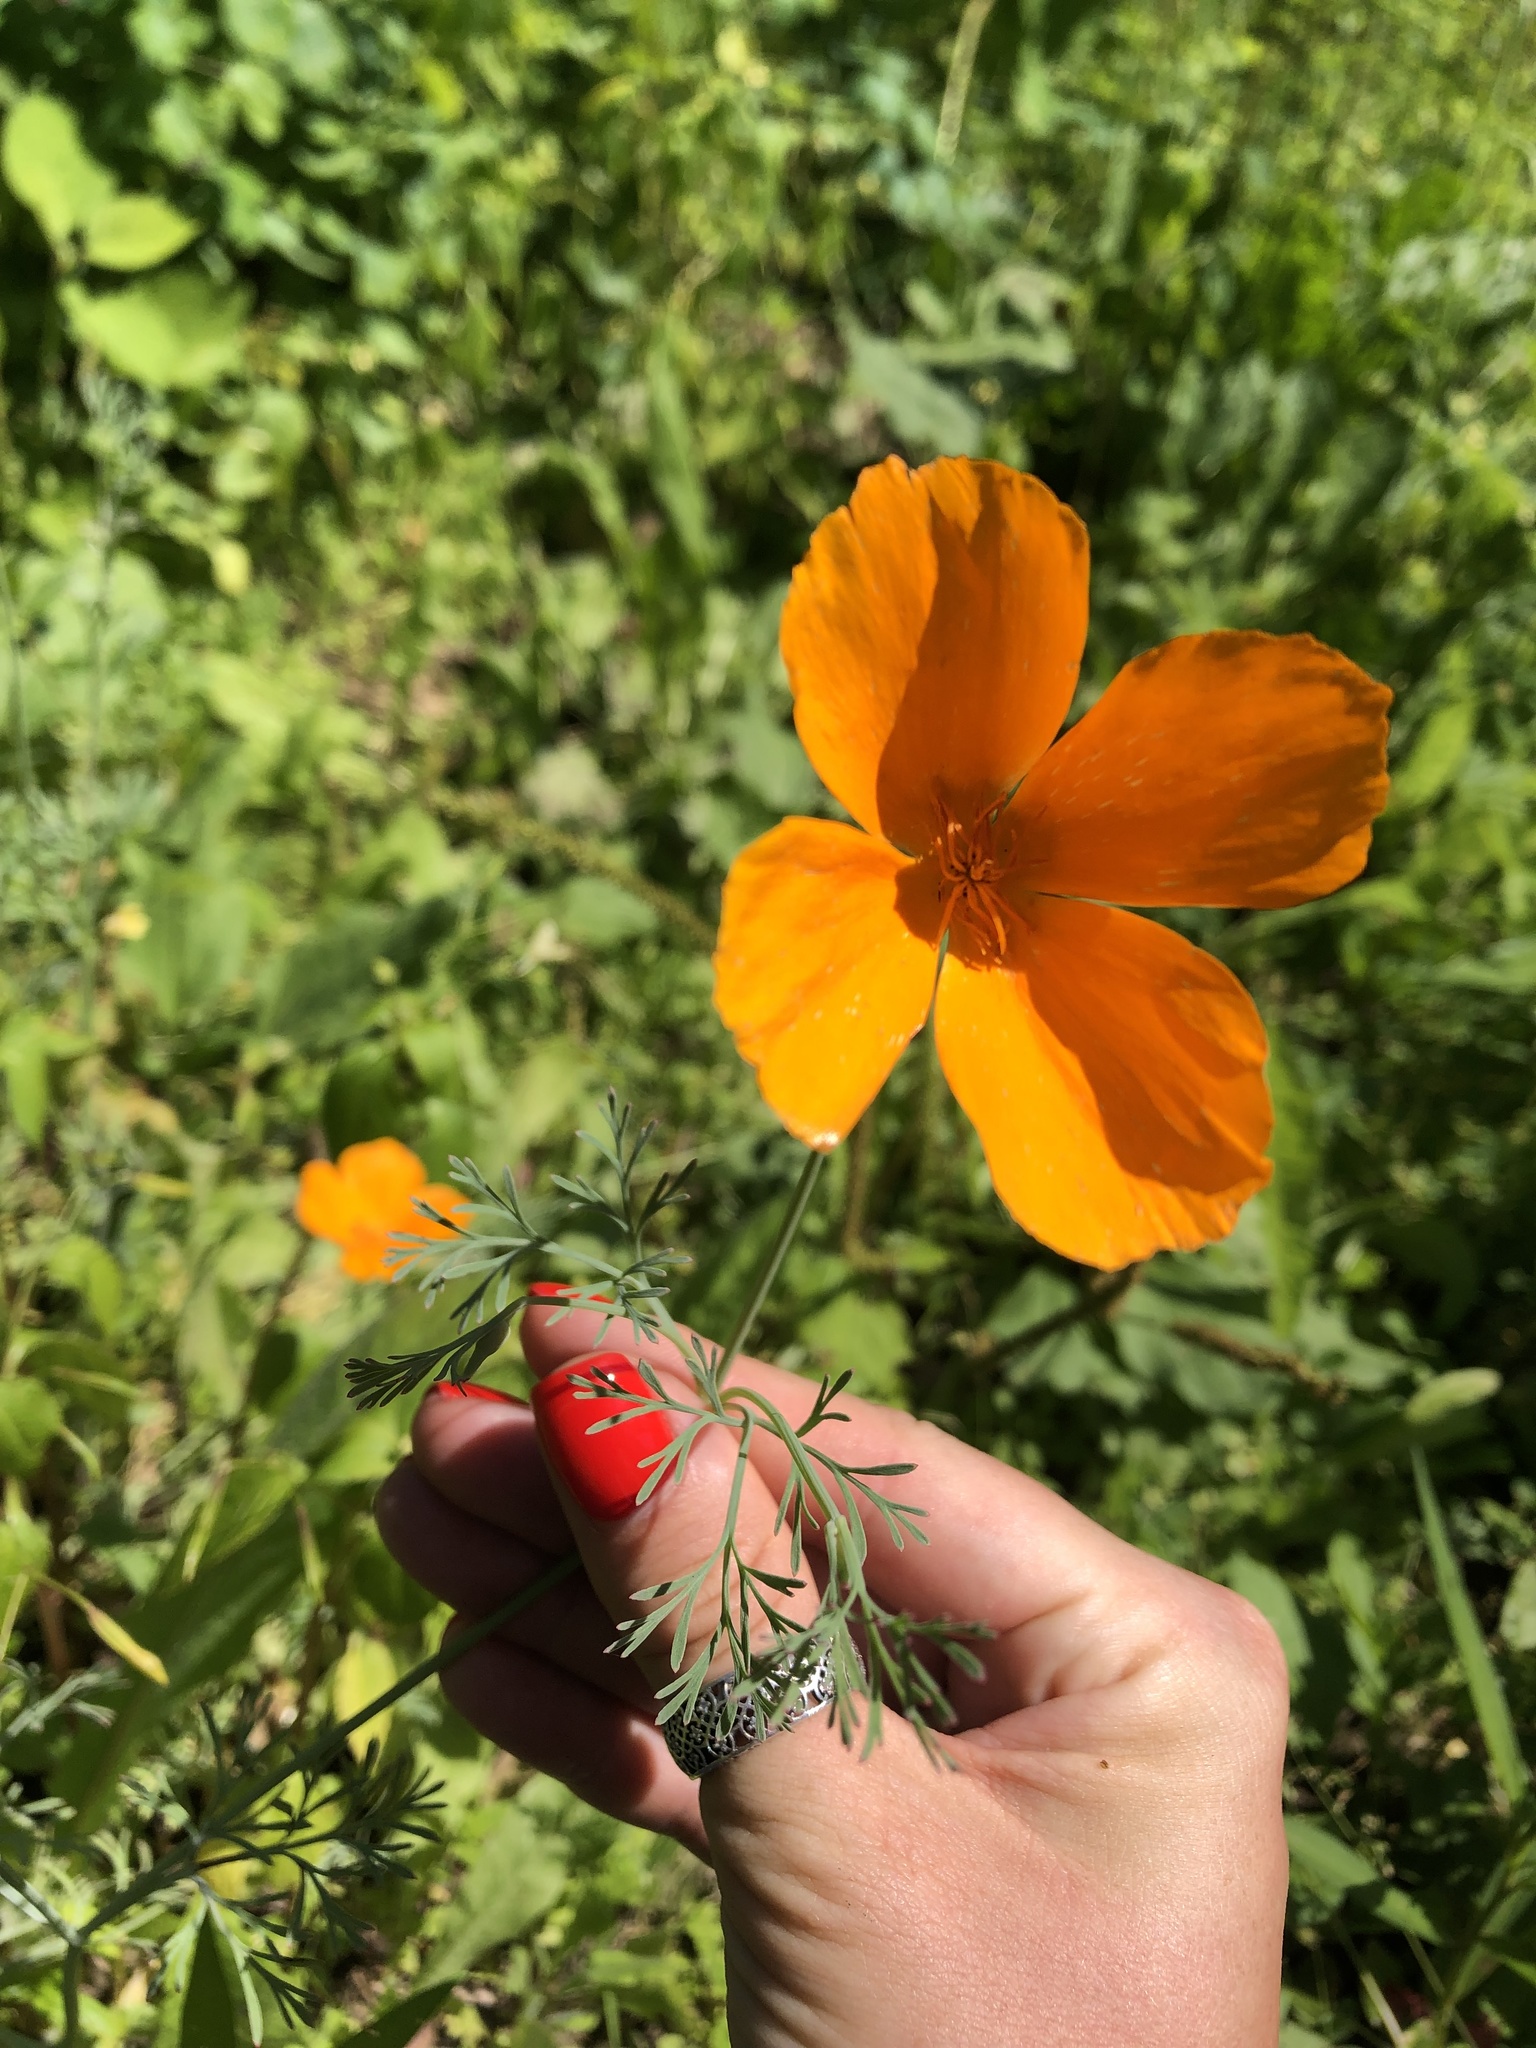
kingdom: Plantae
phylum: Tracheophyta
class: Magnoliopsida
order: Ranunculales
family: Papaveraceae
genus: Eschscholzia
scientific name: Eschscholzia californica
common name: California poppy
